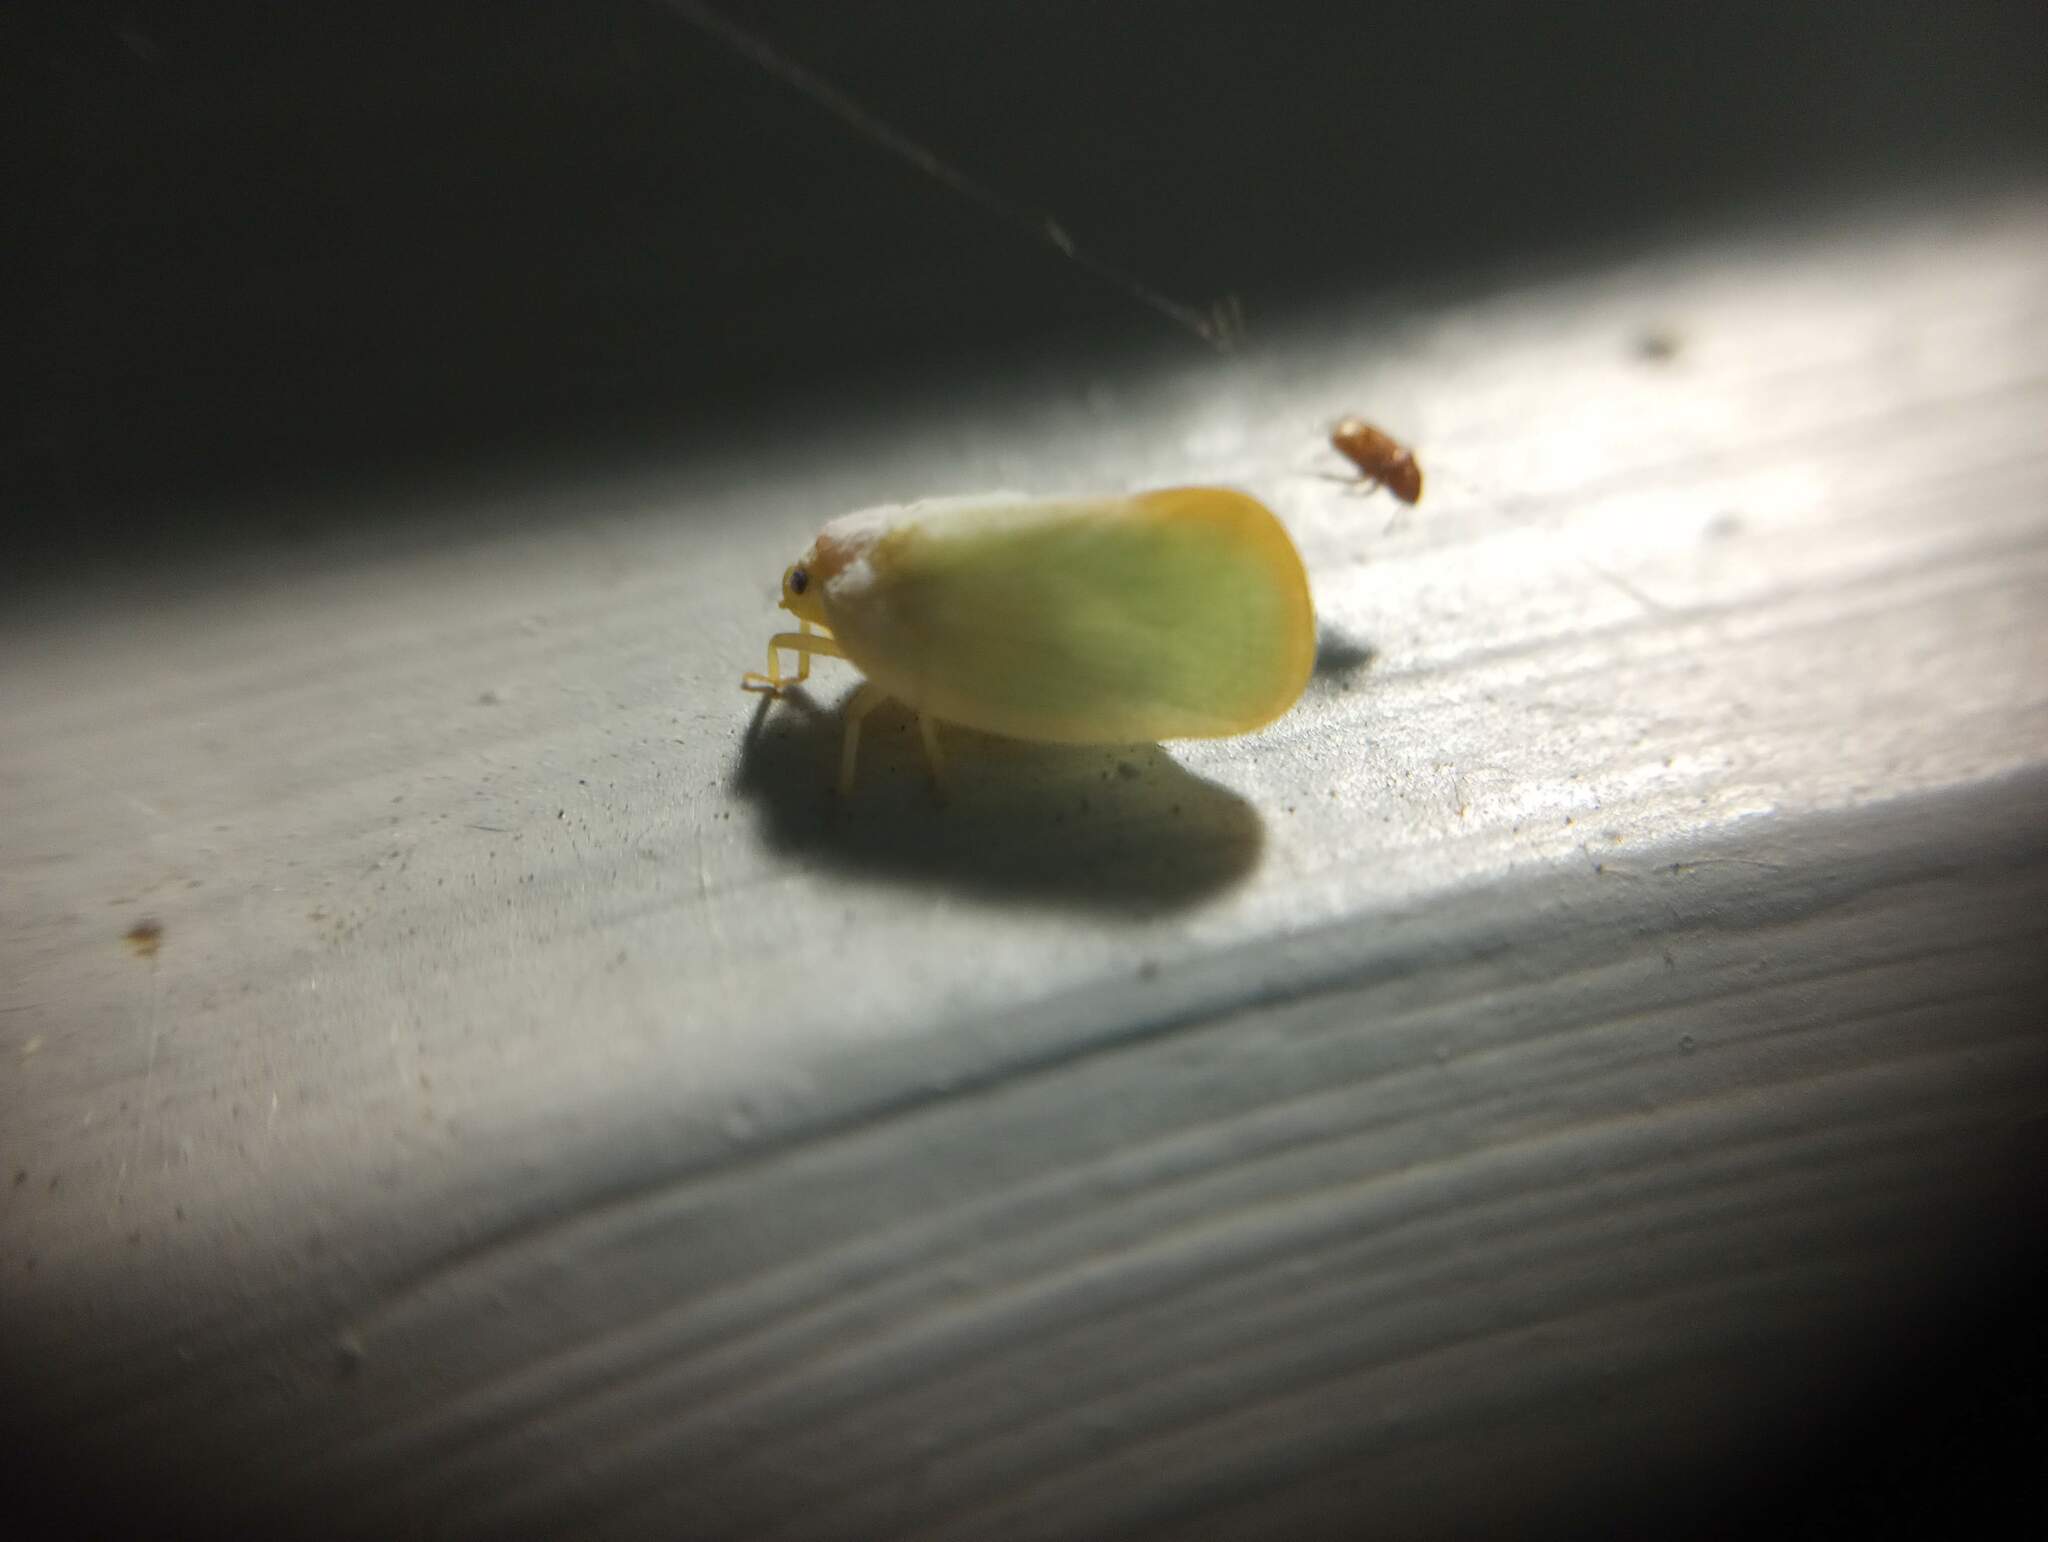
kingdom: Animalia
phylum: Arthropoda
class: Insecta
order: Hemiptera
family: Flatidae
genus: Ormenoides
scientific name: Ormenoides venusta
